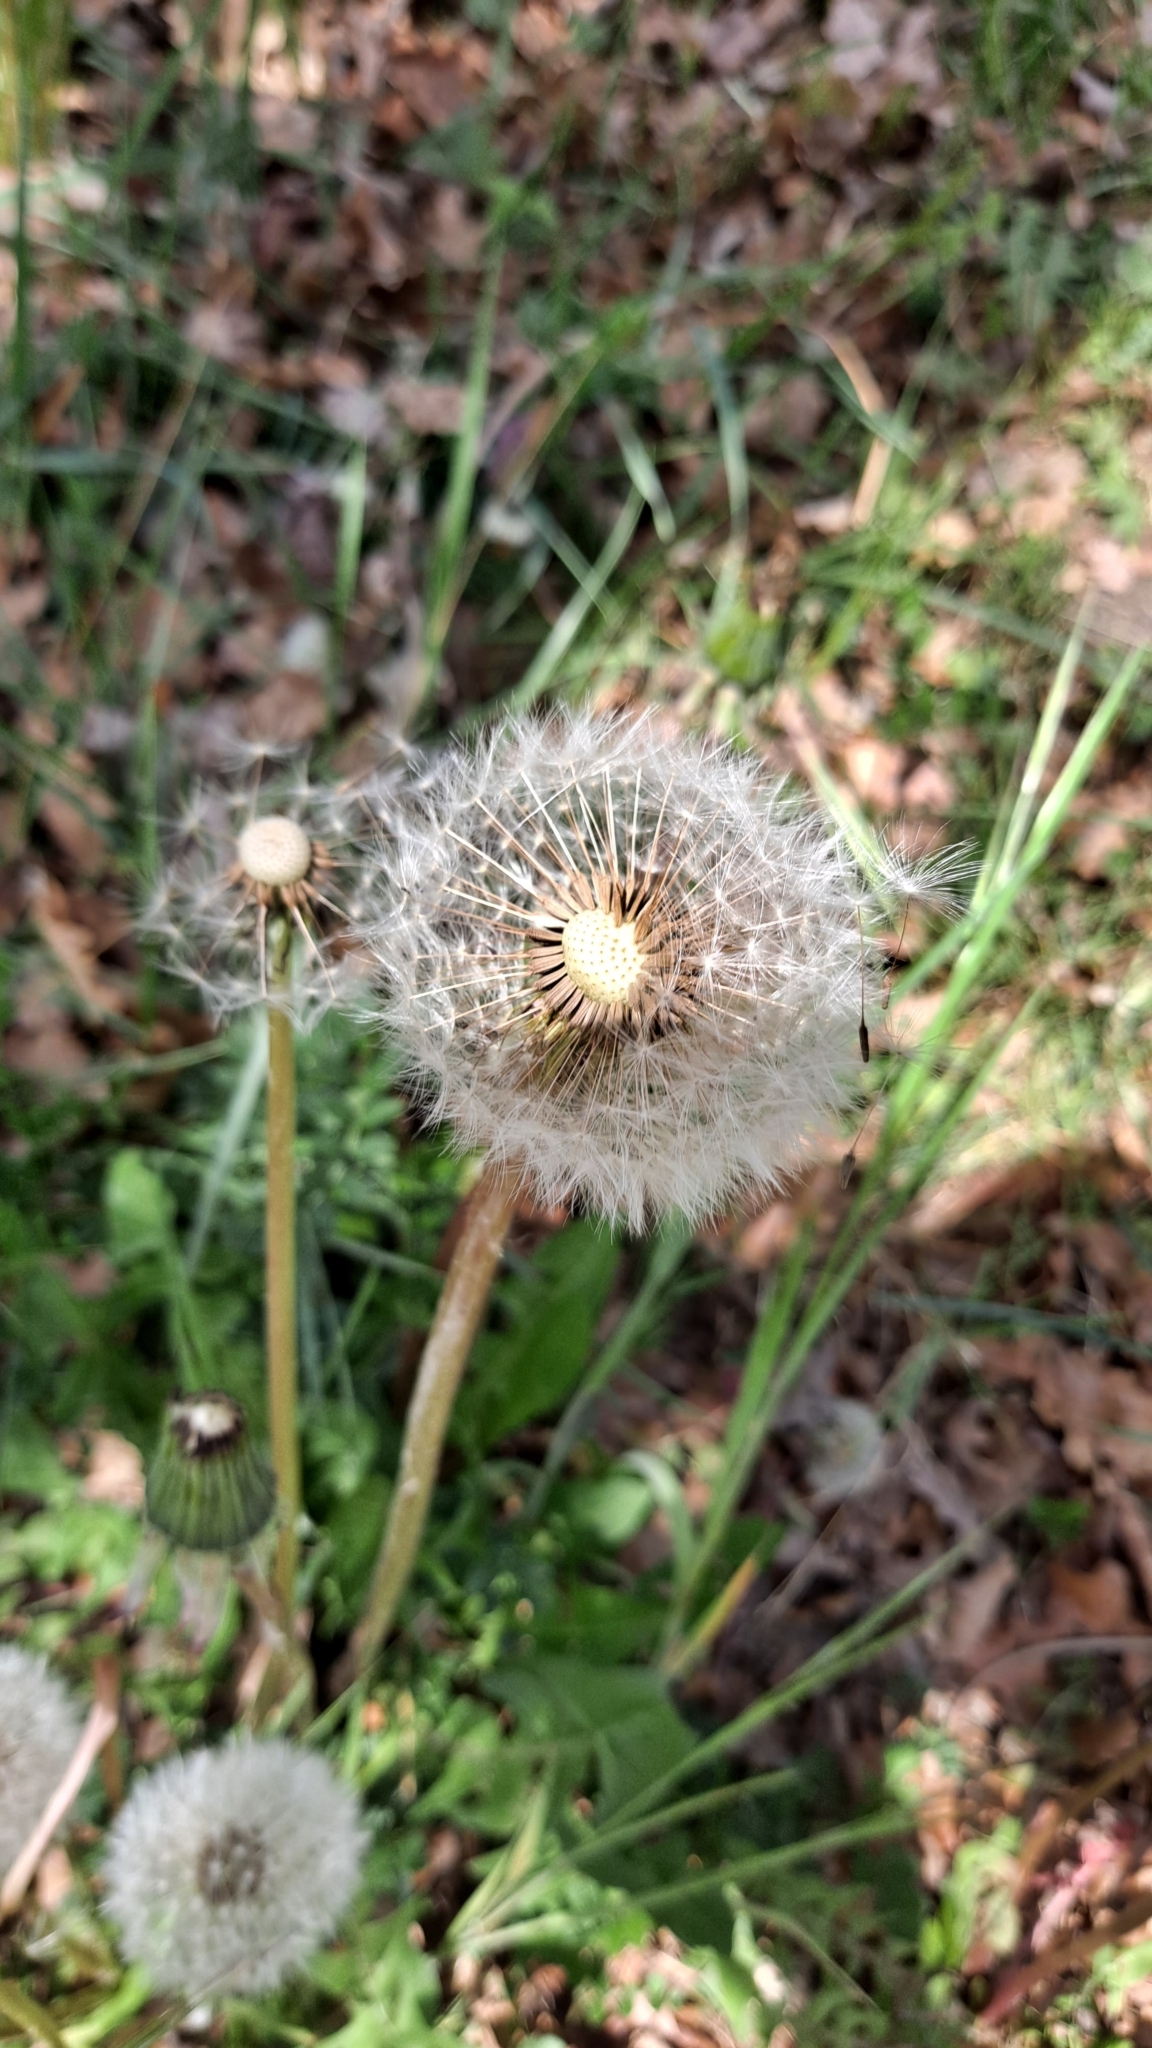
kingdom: Plantae
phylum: Tracheophyta
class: Magnoliopsida
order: Asterales
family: Asteraceae
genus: Taraxacum
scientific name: Taraxacum officinale
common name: Common dandelion
